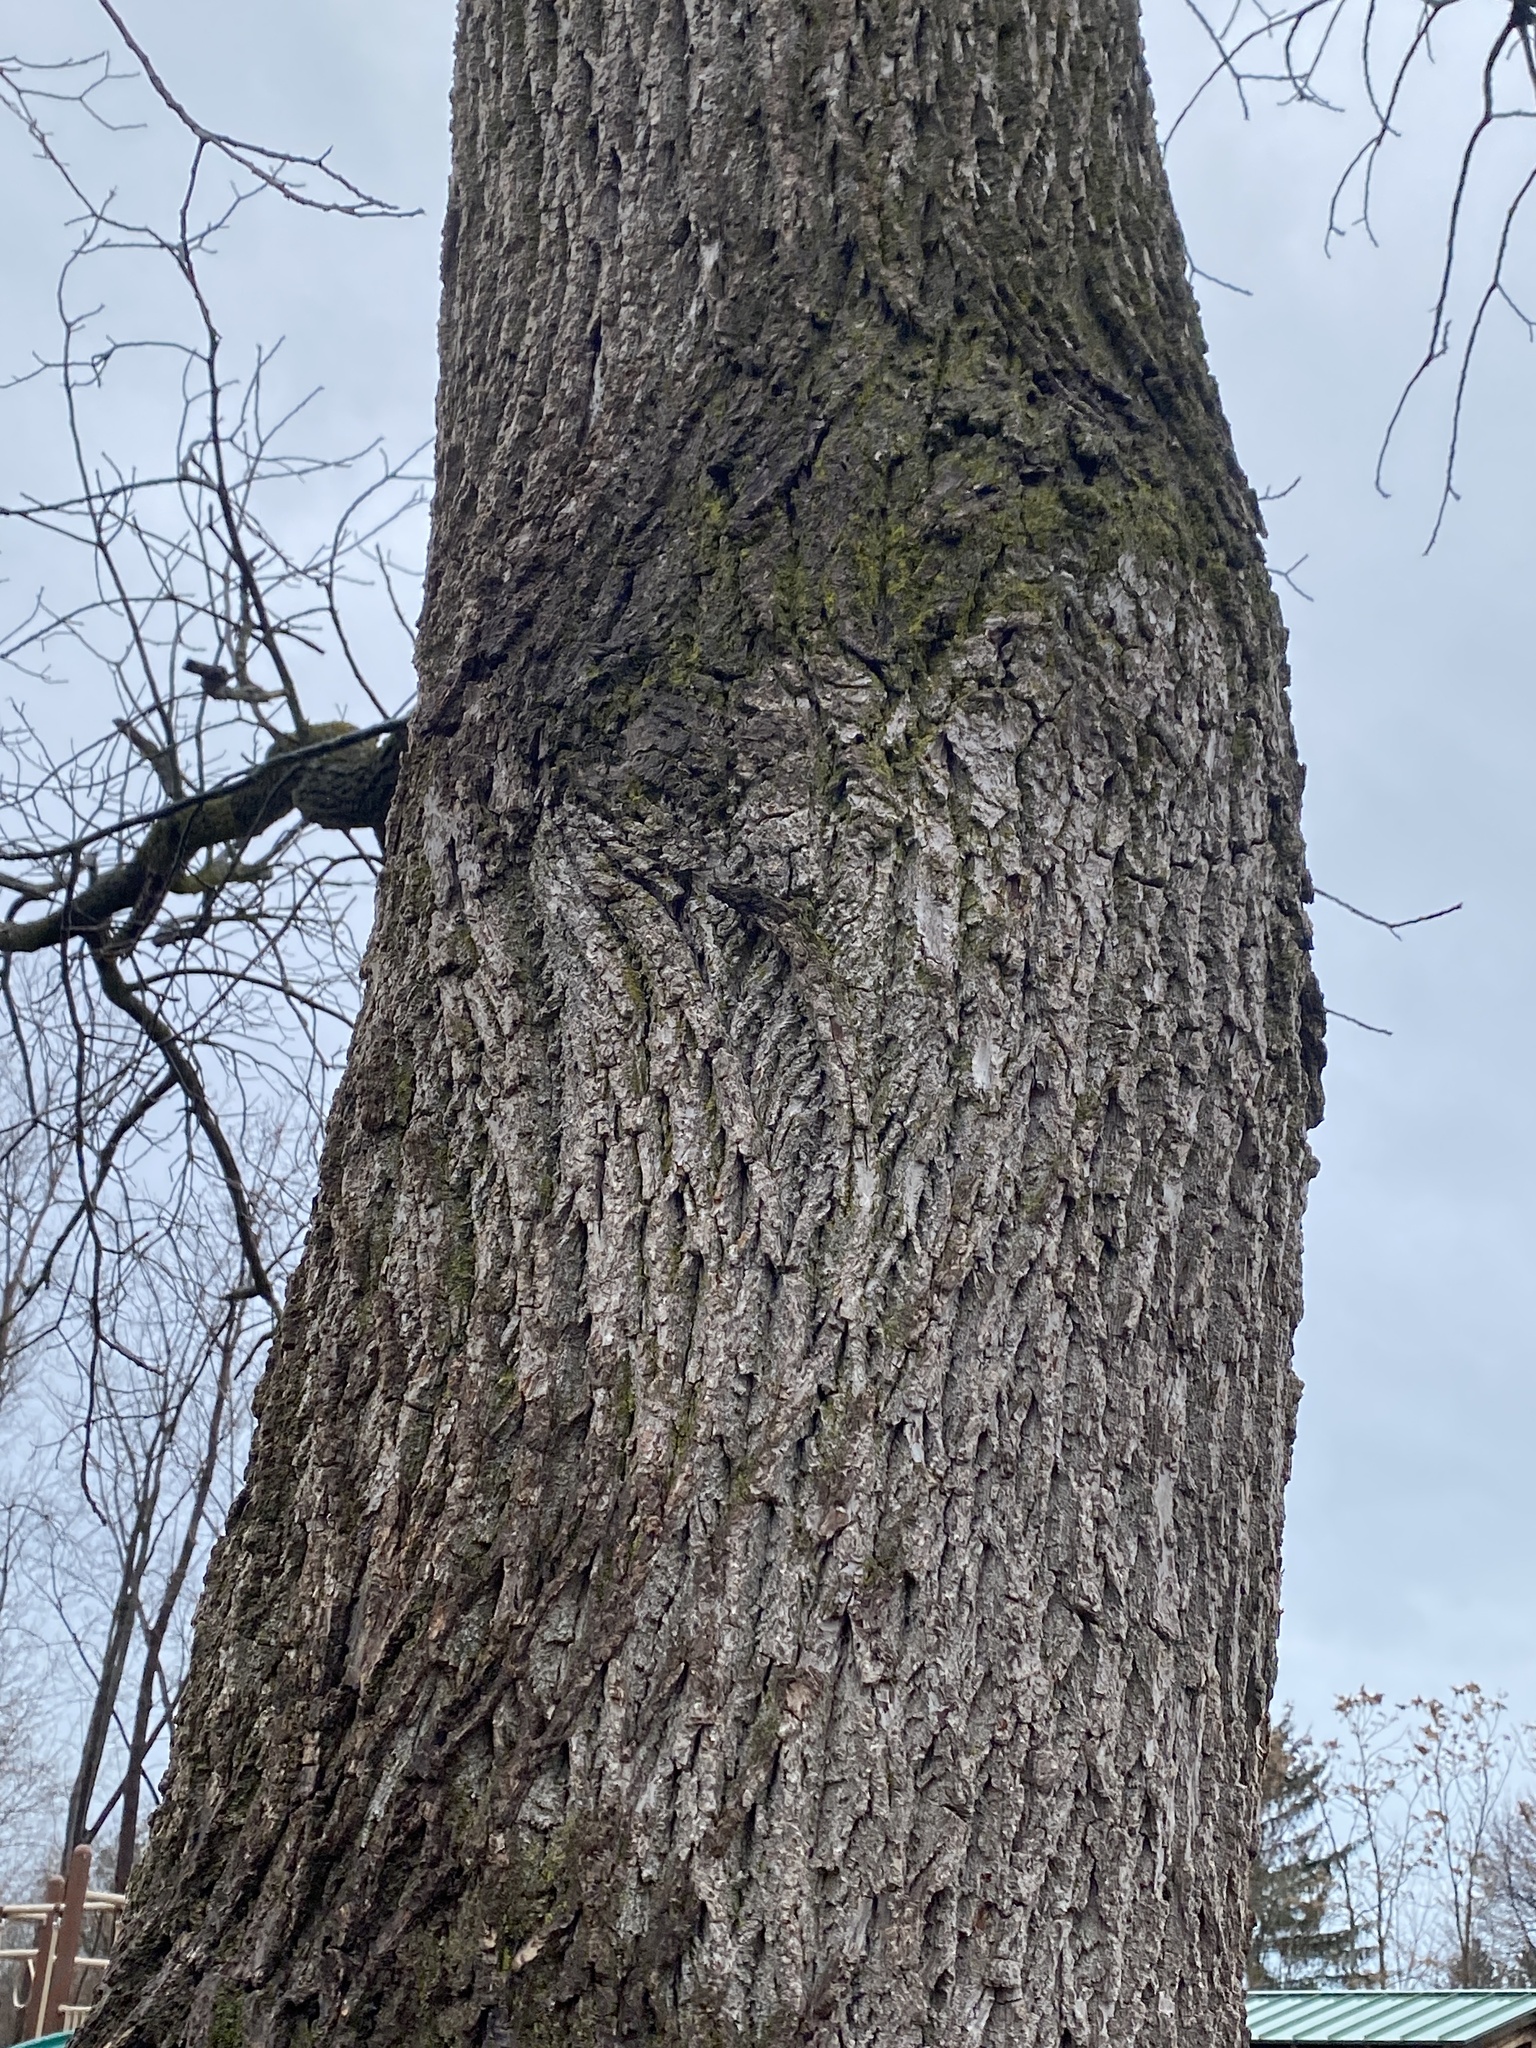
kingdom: Plantae
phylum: Tracheophyta
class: Magnoliopsida
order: Fagales
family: Juglandaceae
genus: Juglans
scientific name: Juglans nigra
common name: Black walnut
